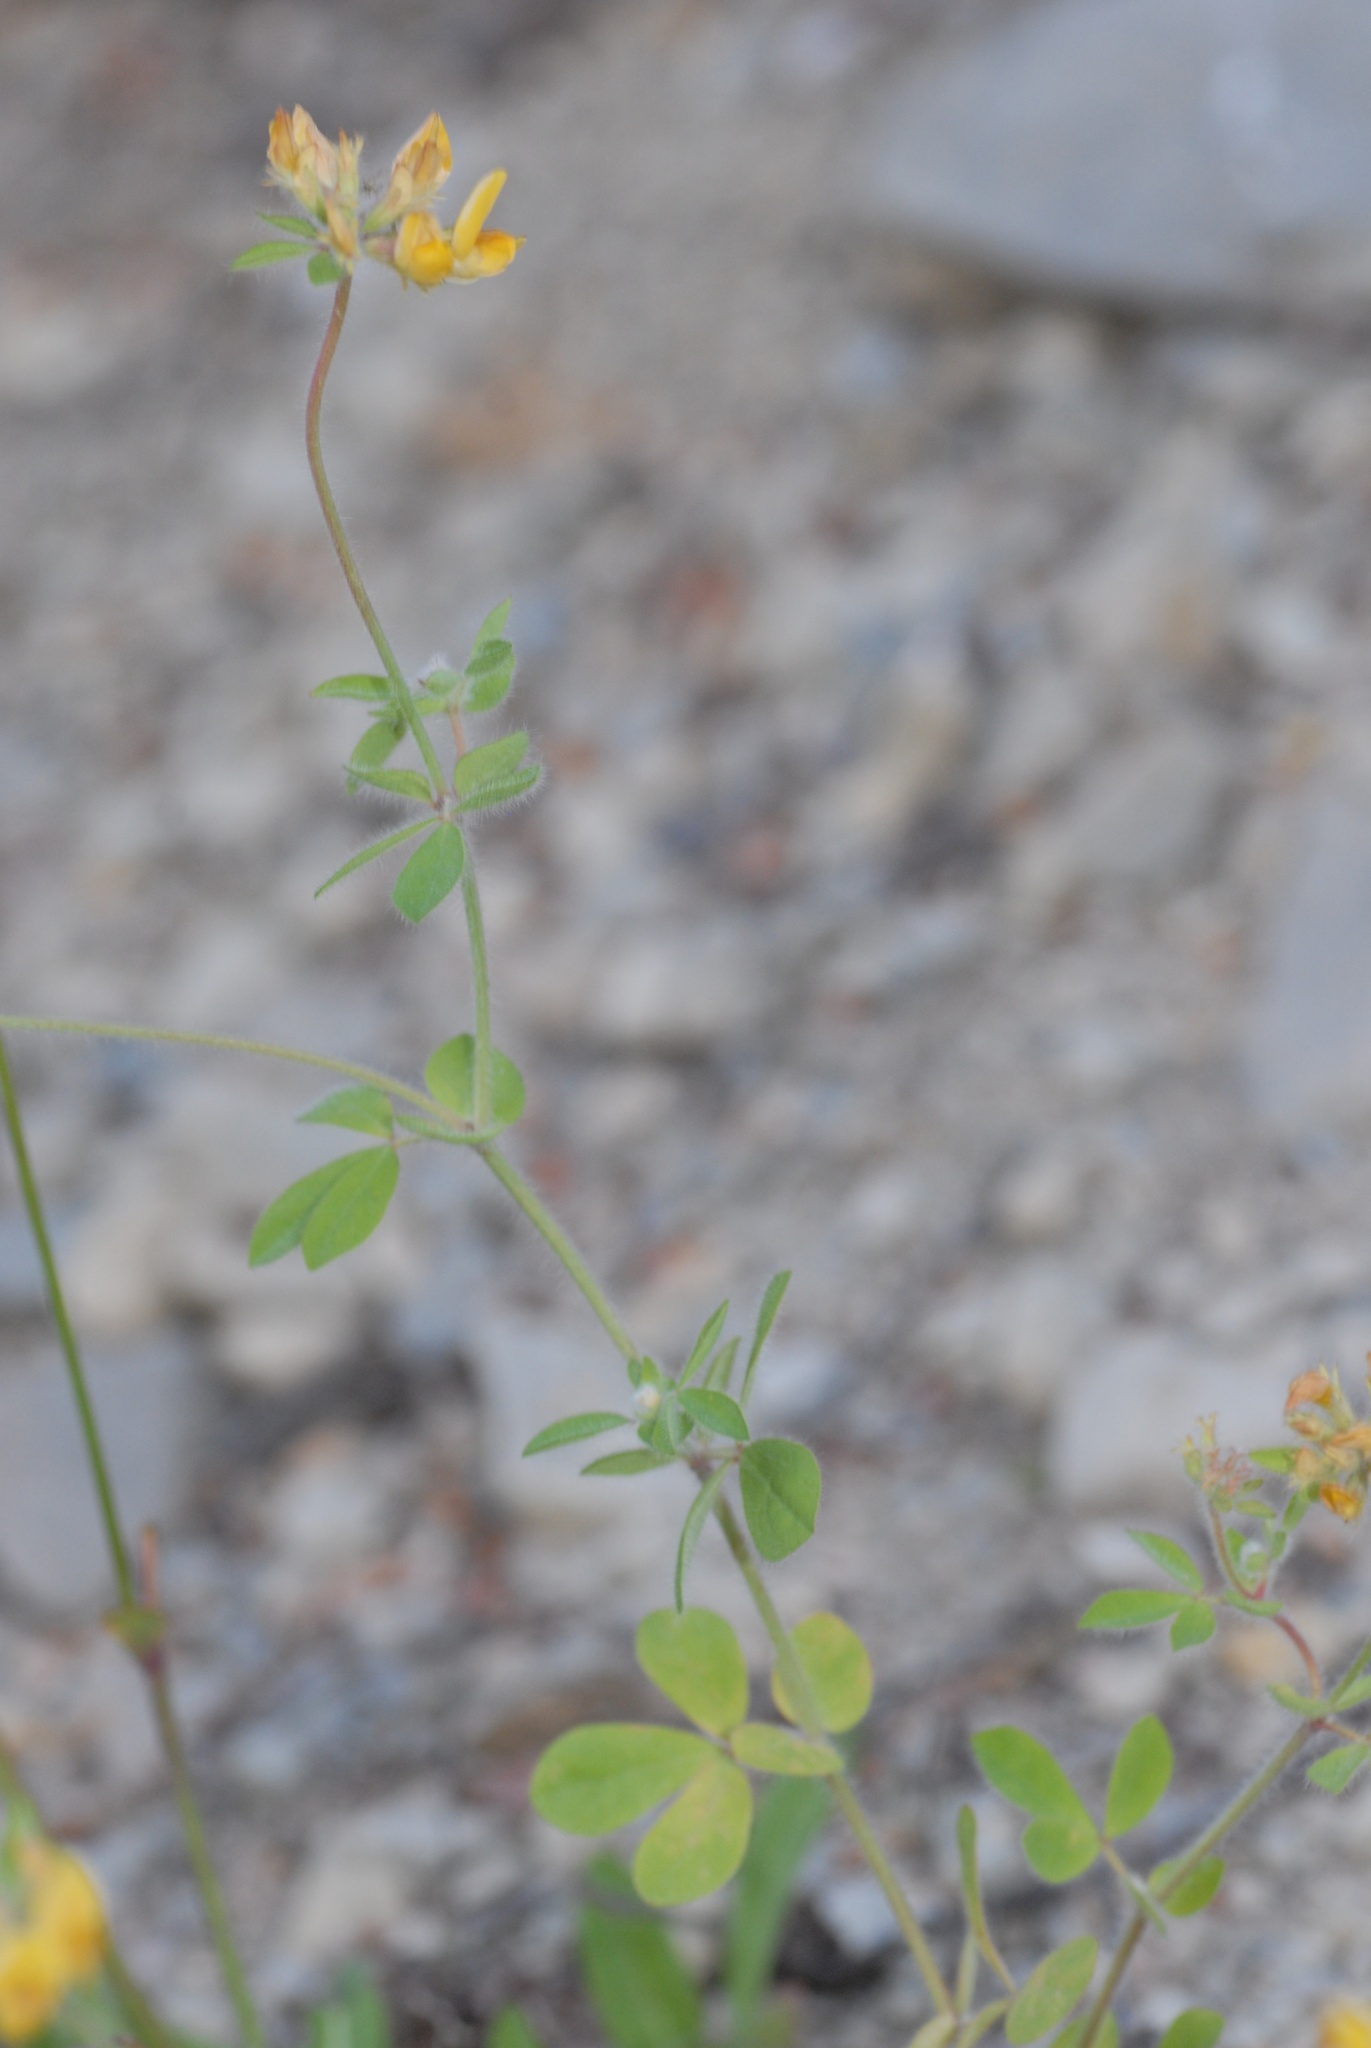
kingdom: Plantae
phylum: Tracheophyta
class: Magnoliopsida
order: Fabales
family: Fabaceae
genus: Lotus
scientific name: Lotus pedunculatus
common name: Greater birdsfoot-trefoil
